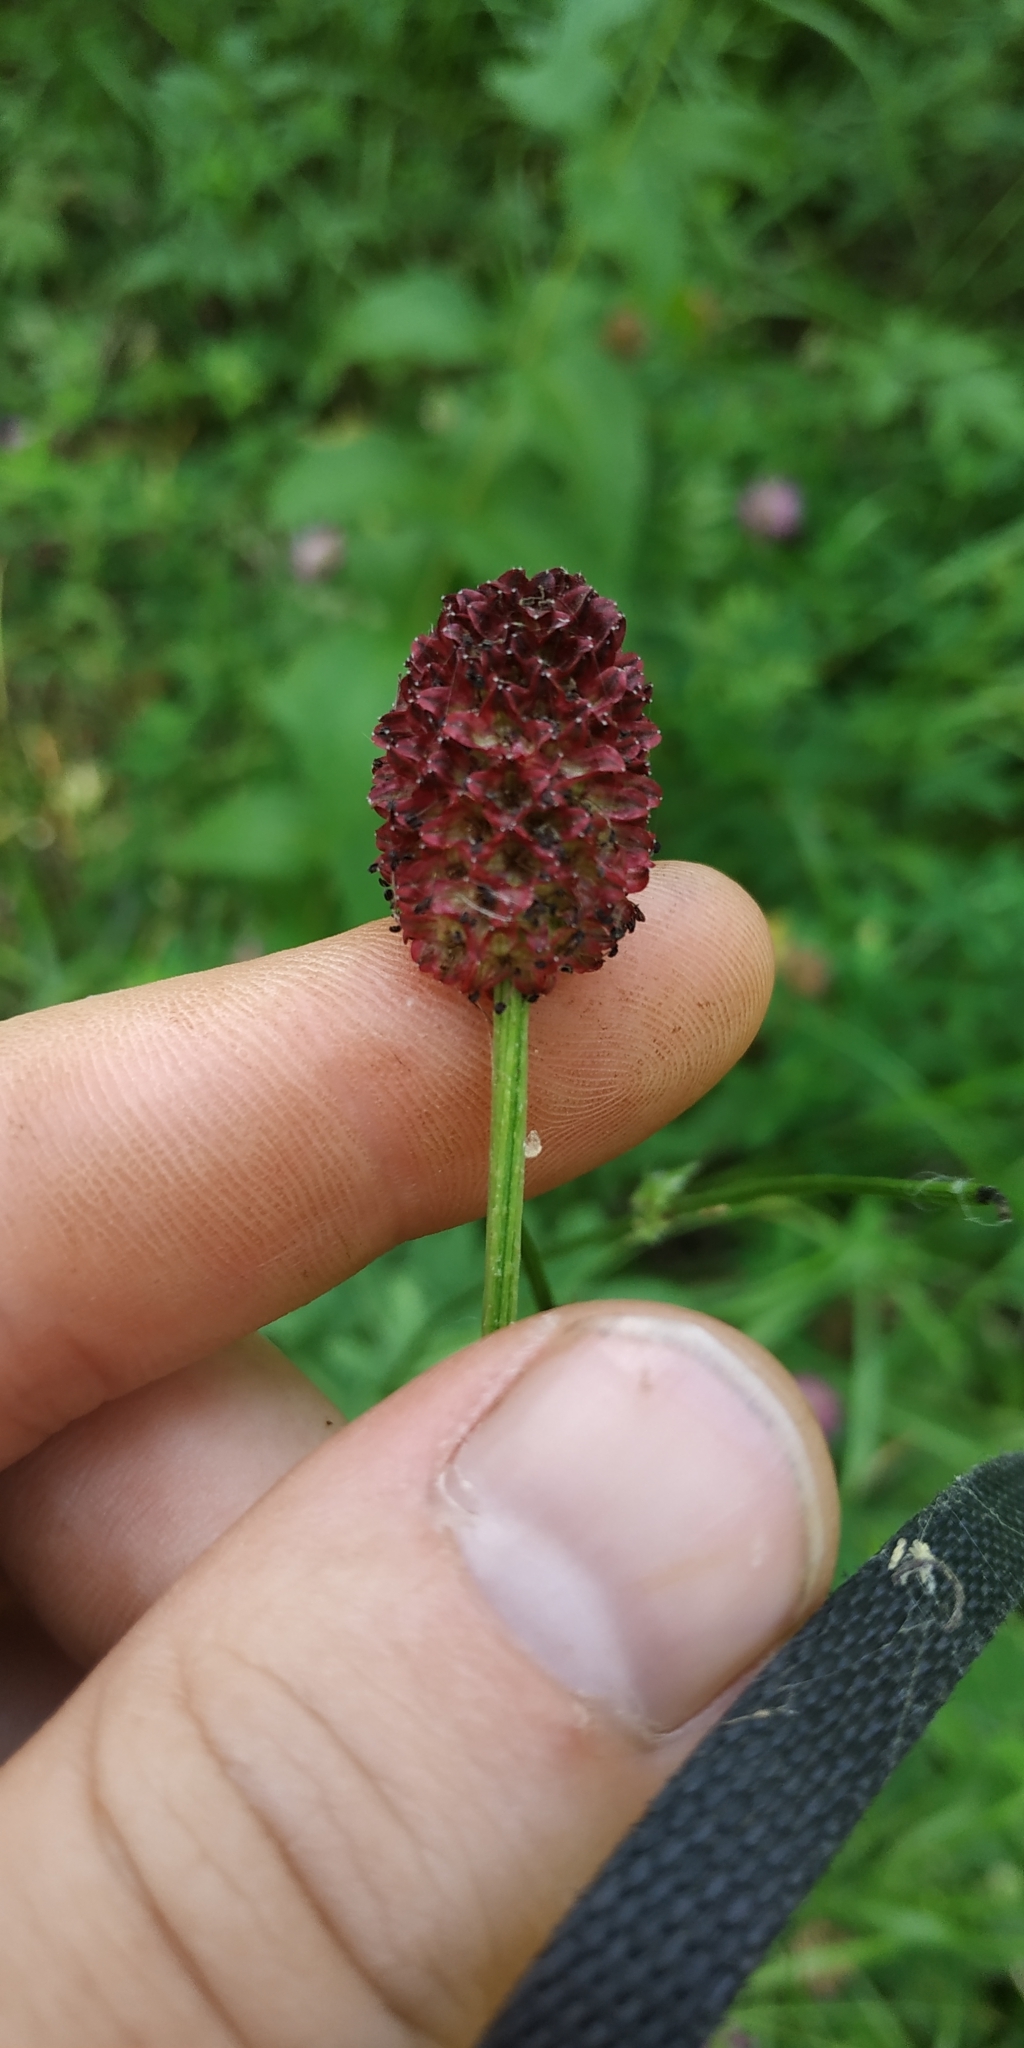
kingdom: Plantae
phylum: Tracheophyta
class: Magnoliopsida
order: Rosales
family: Rosaceae
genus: Sanguisorba
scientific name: Sanguisorba officinalis
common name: Great burnet
